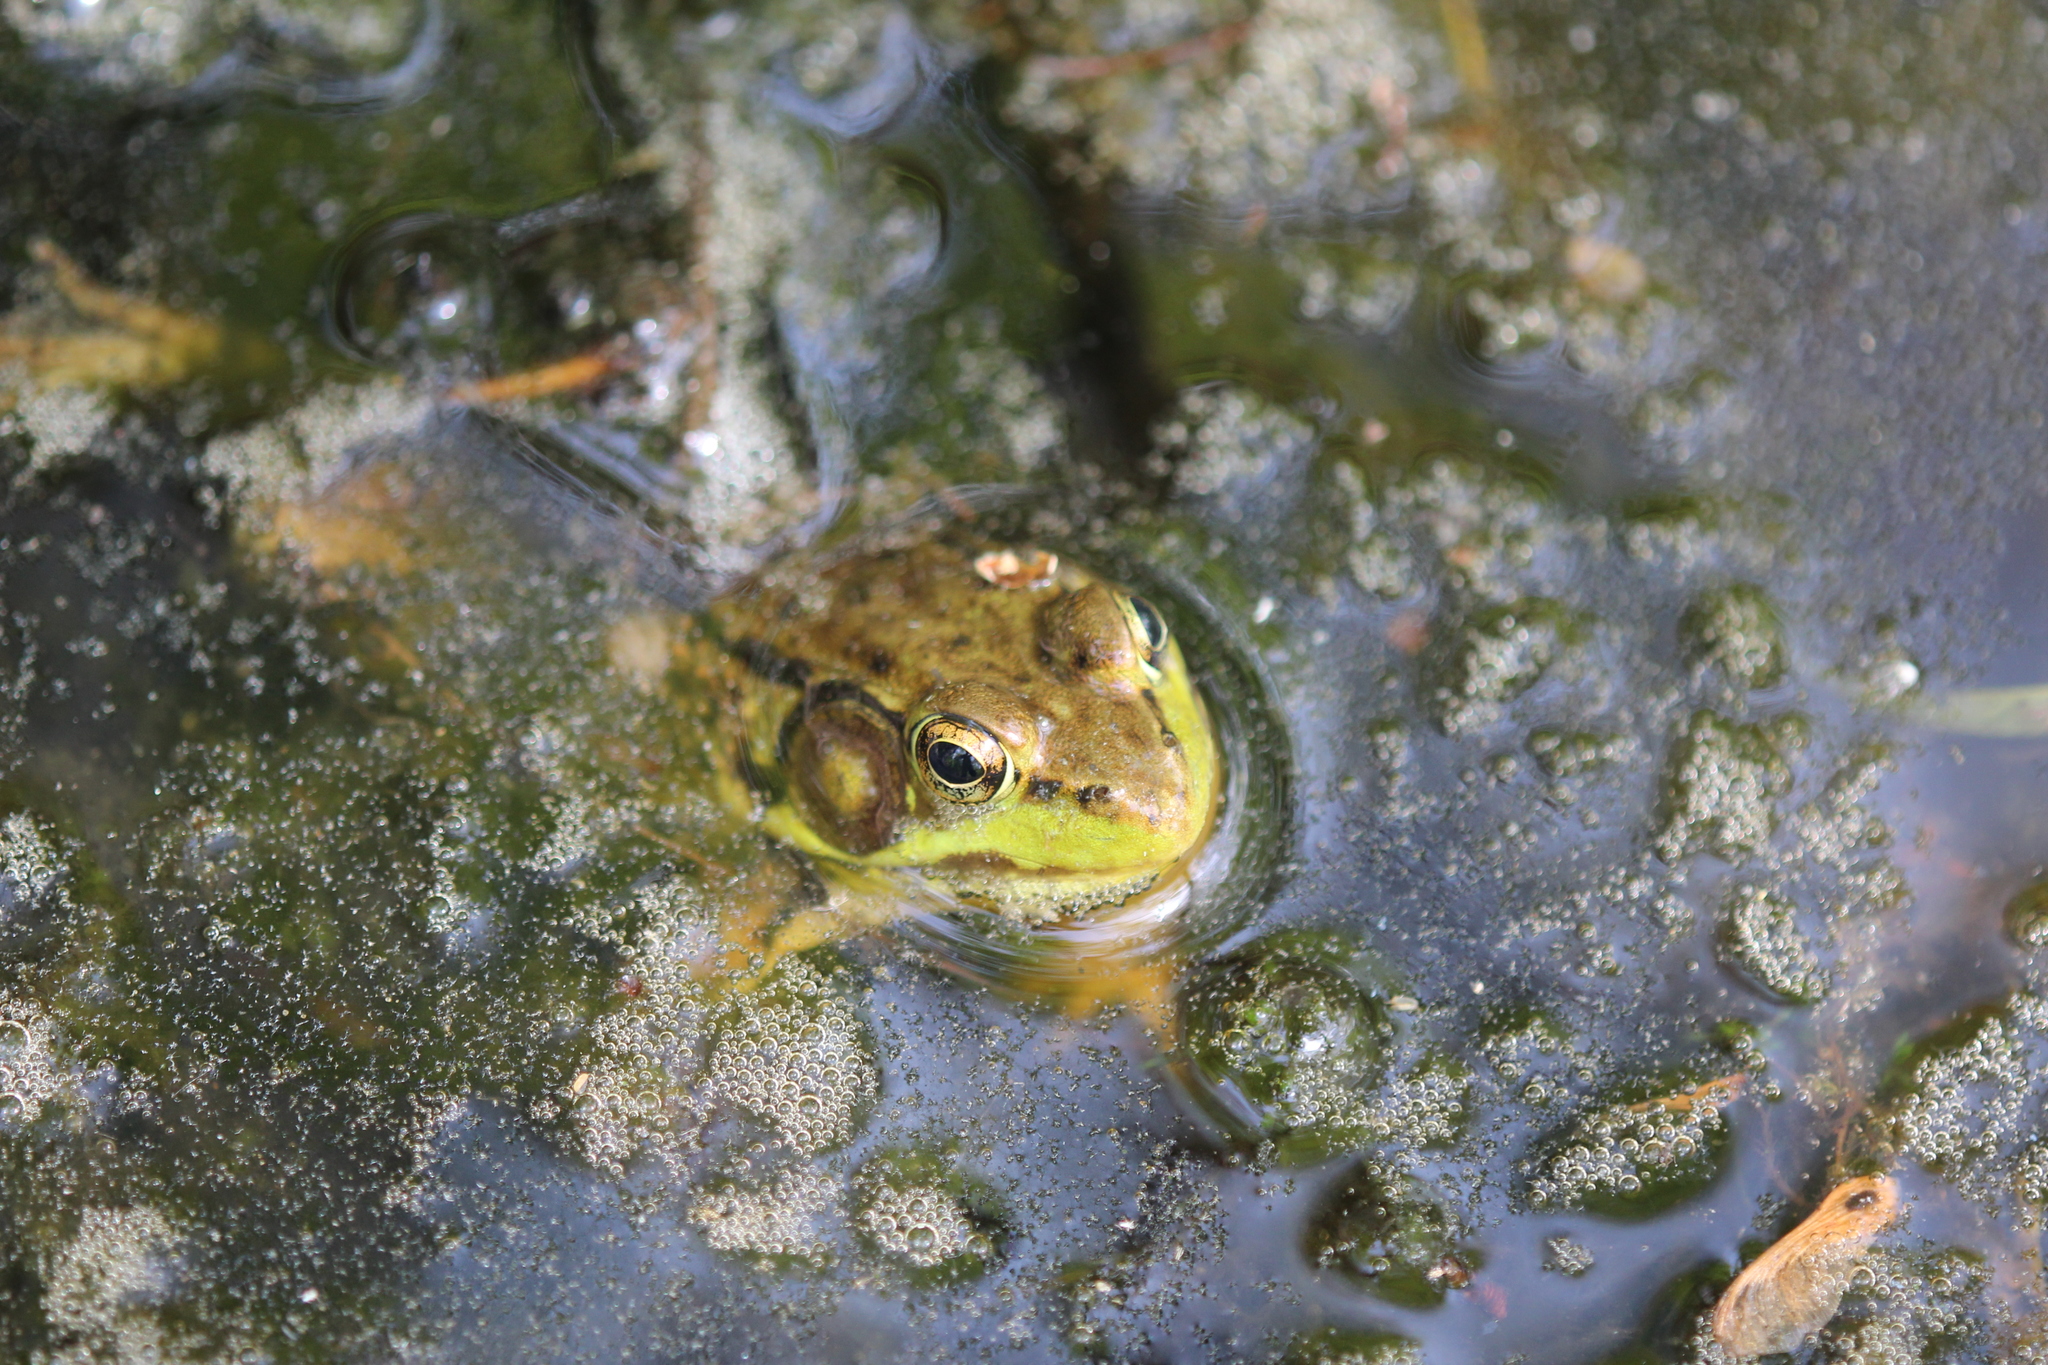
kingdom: Animalia
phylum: Chordata
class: Amphibia
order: Anura
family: Ranidae
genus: Lithobates
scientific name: Lithobates clamitans
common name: Green frog
